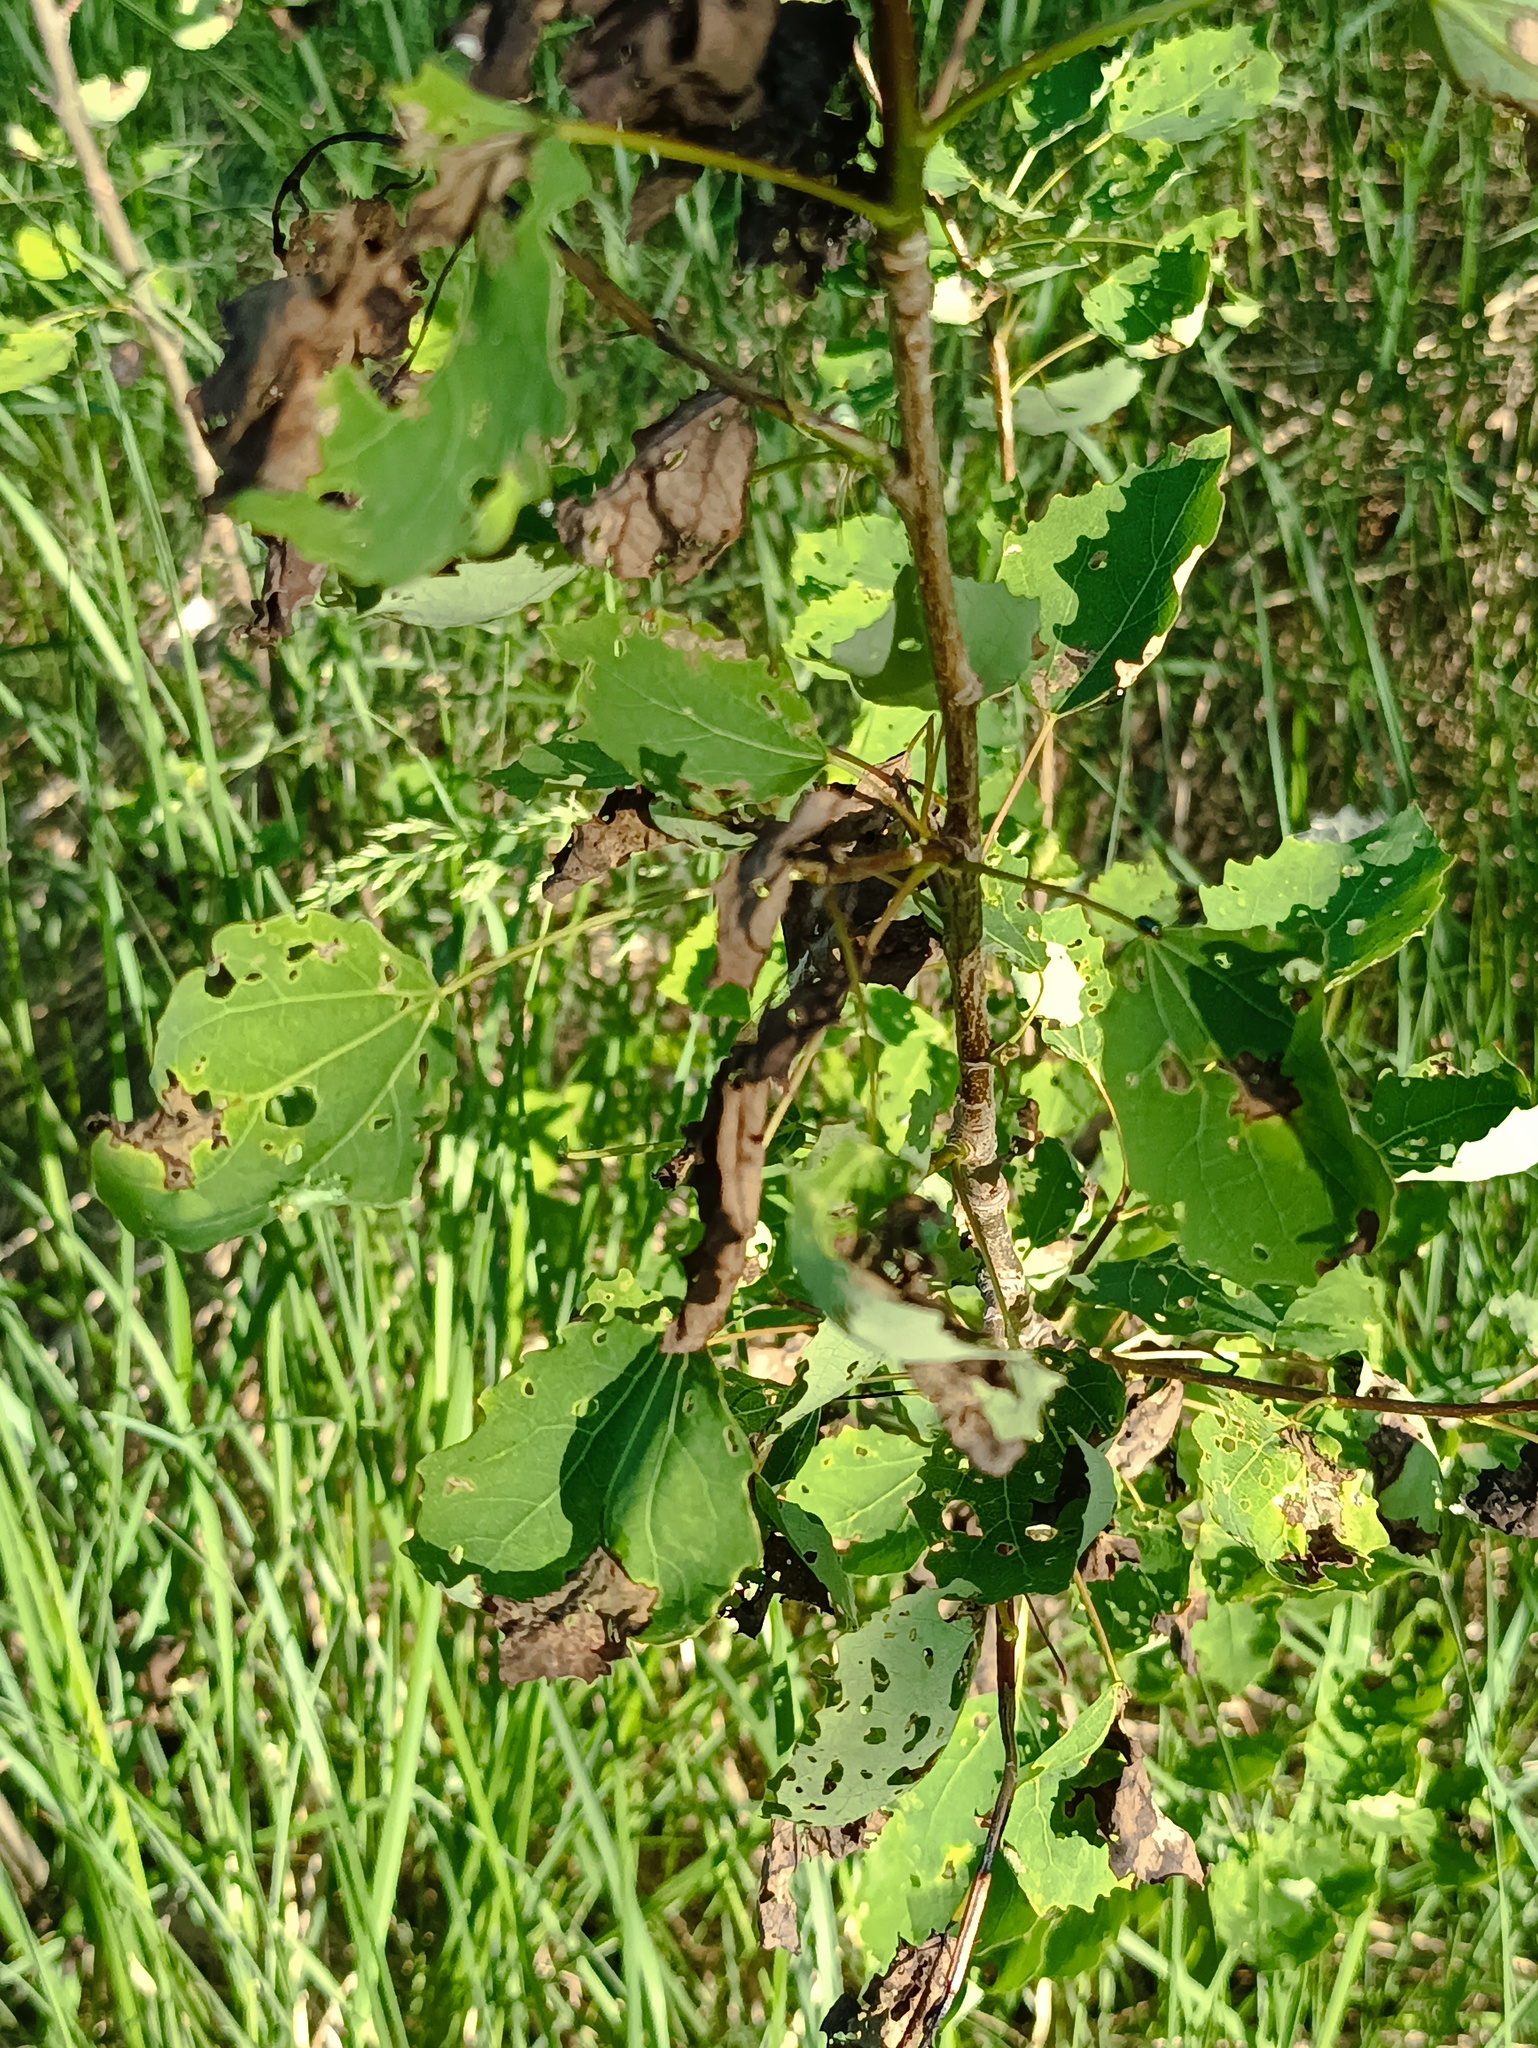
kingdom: Plantae
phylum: Tracheophyta
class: Magnoliopsida
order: Malpighiales
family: Salicaceae
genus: Populus
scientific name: Populus tremula
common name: European aspen
